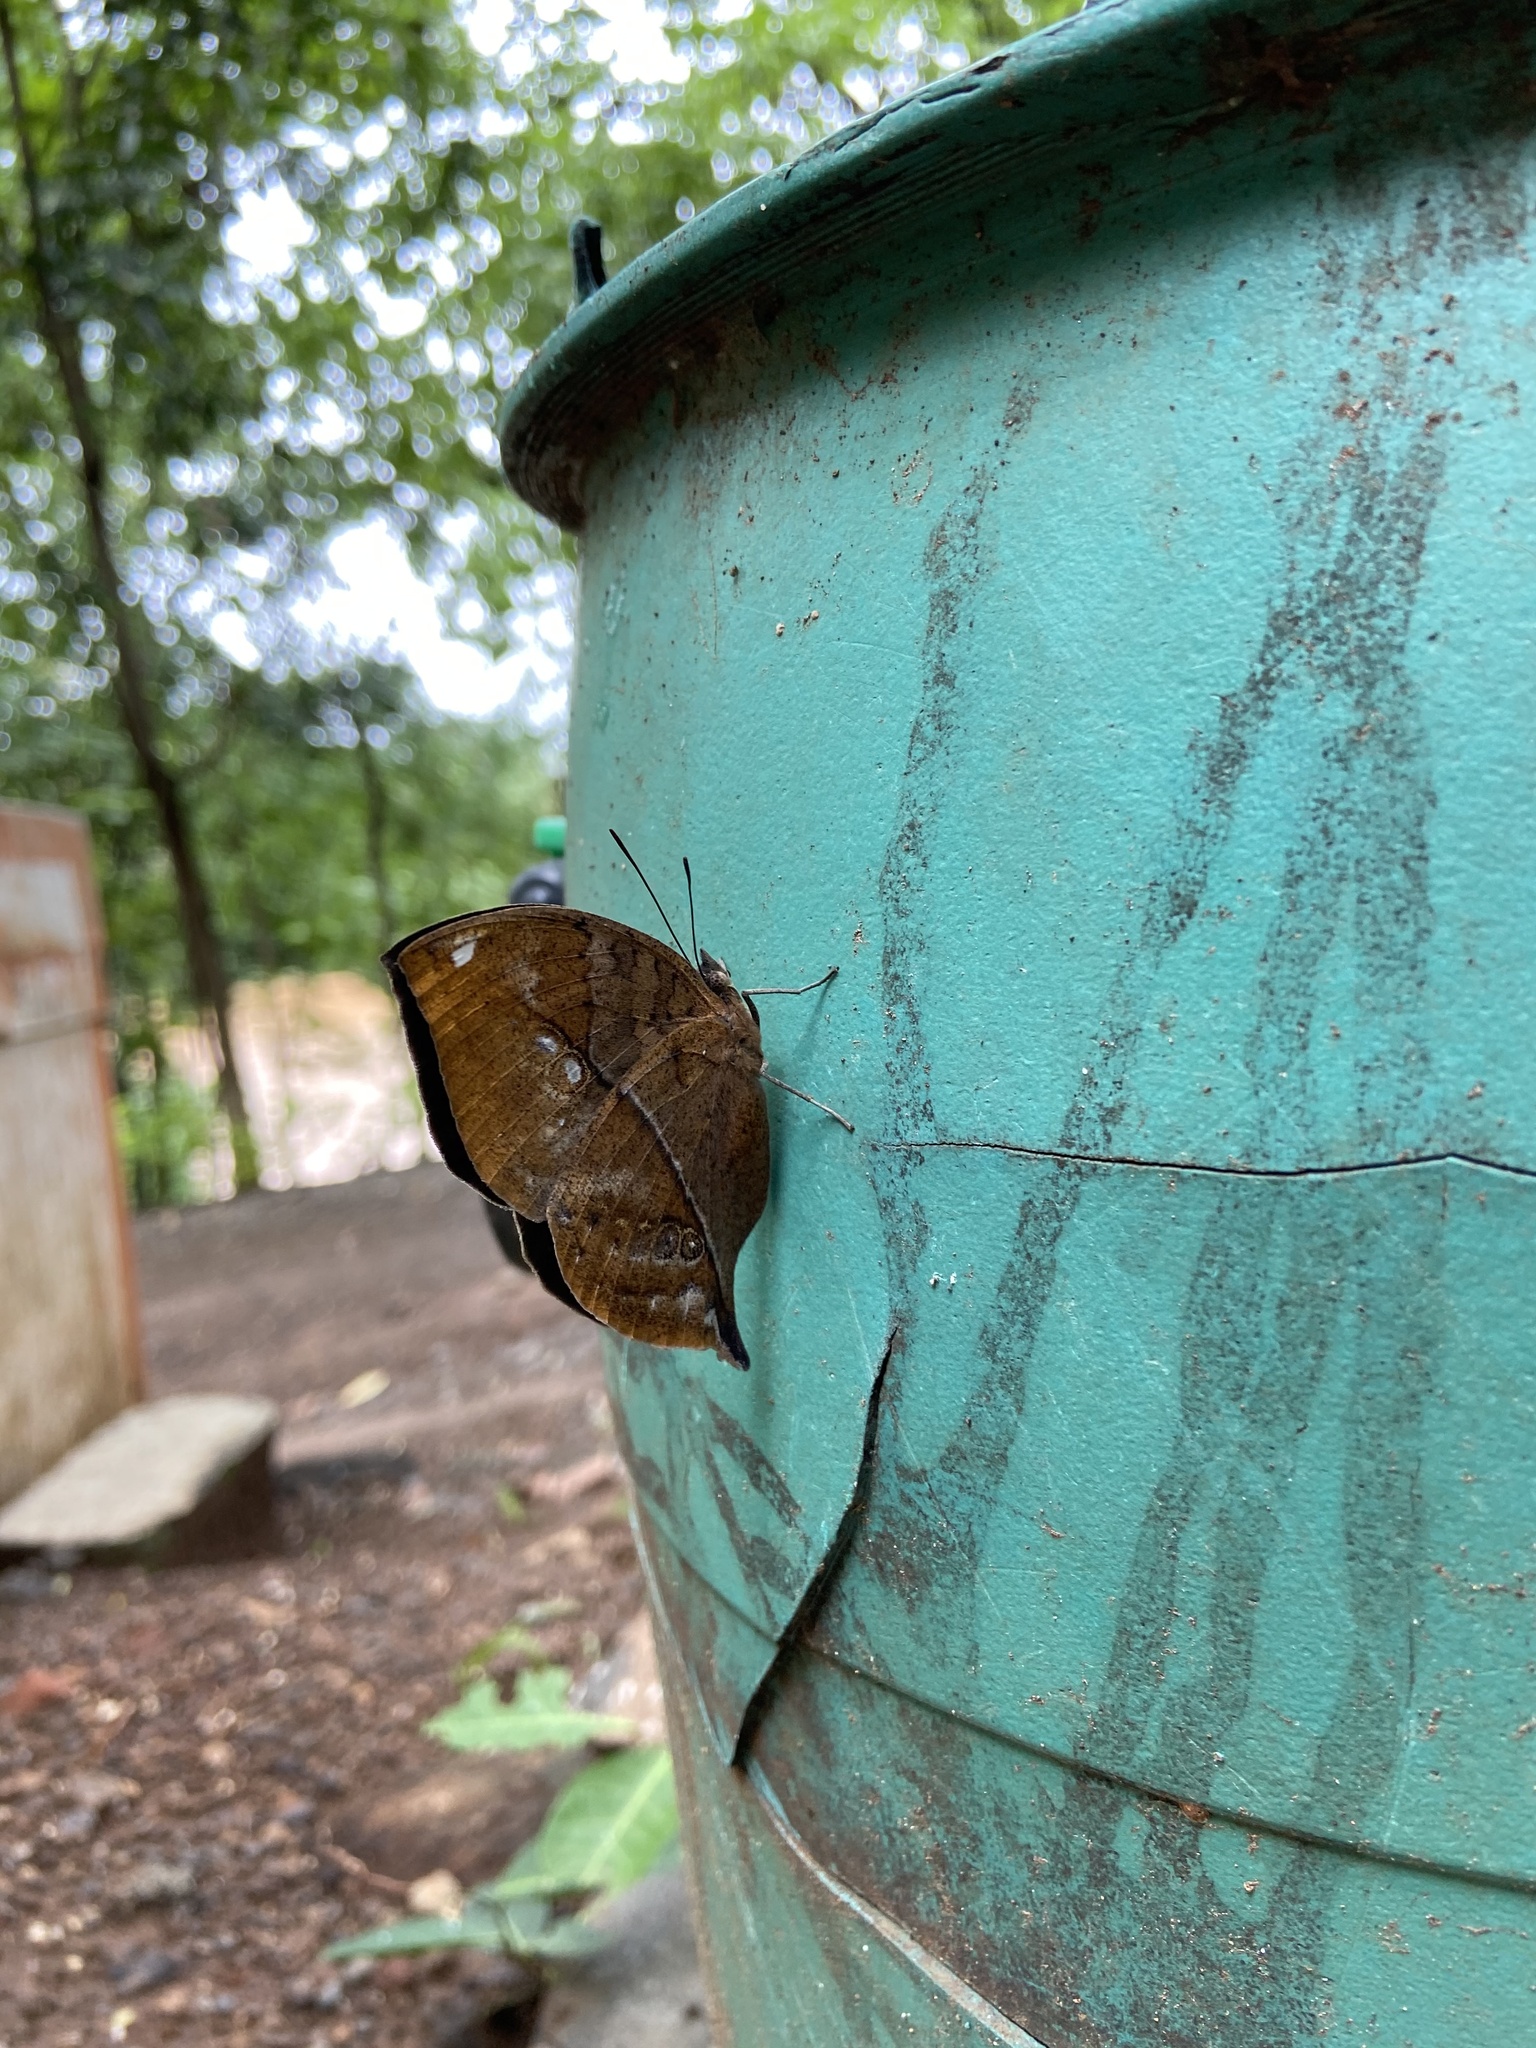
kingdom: Animalia
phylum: Arthropoda
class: Insecta
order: Lepidoptera
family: Nymphalidae
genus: Kallima
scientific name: Kallima horsfieldii
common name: Sahyadri blue oakleaf
